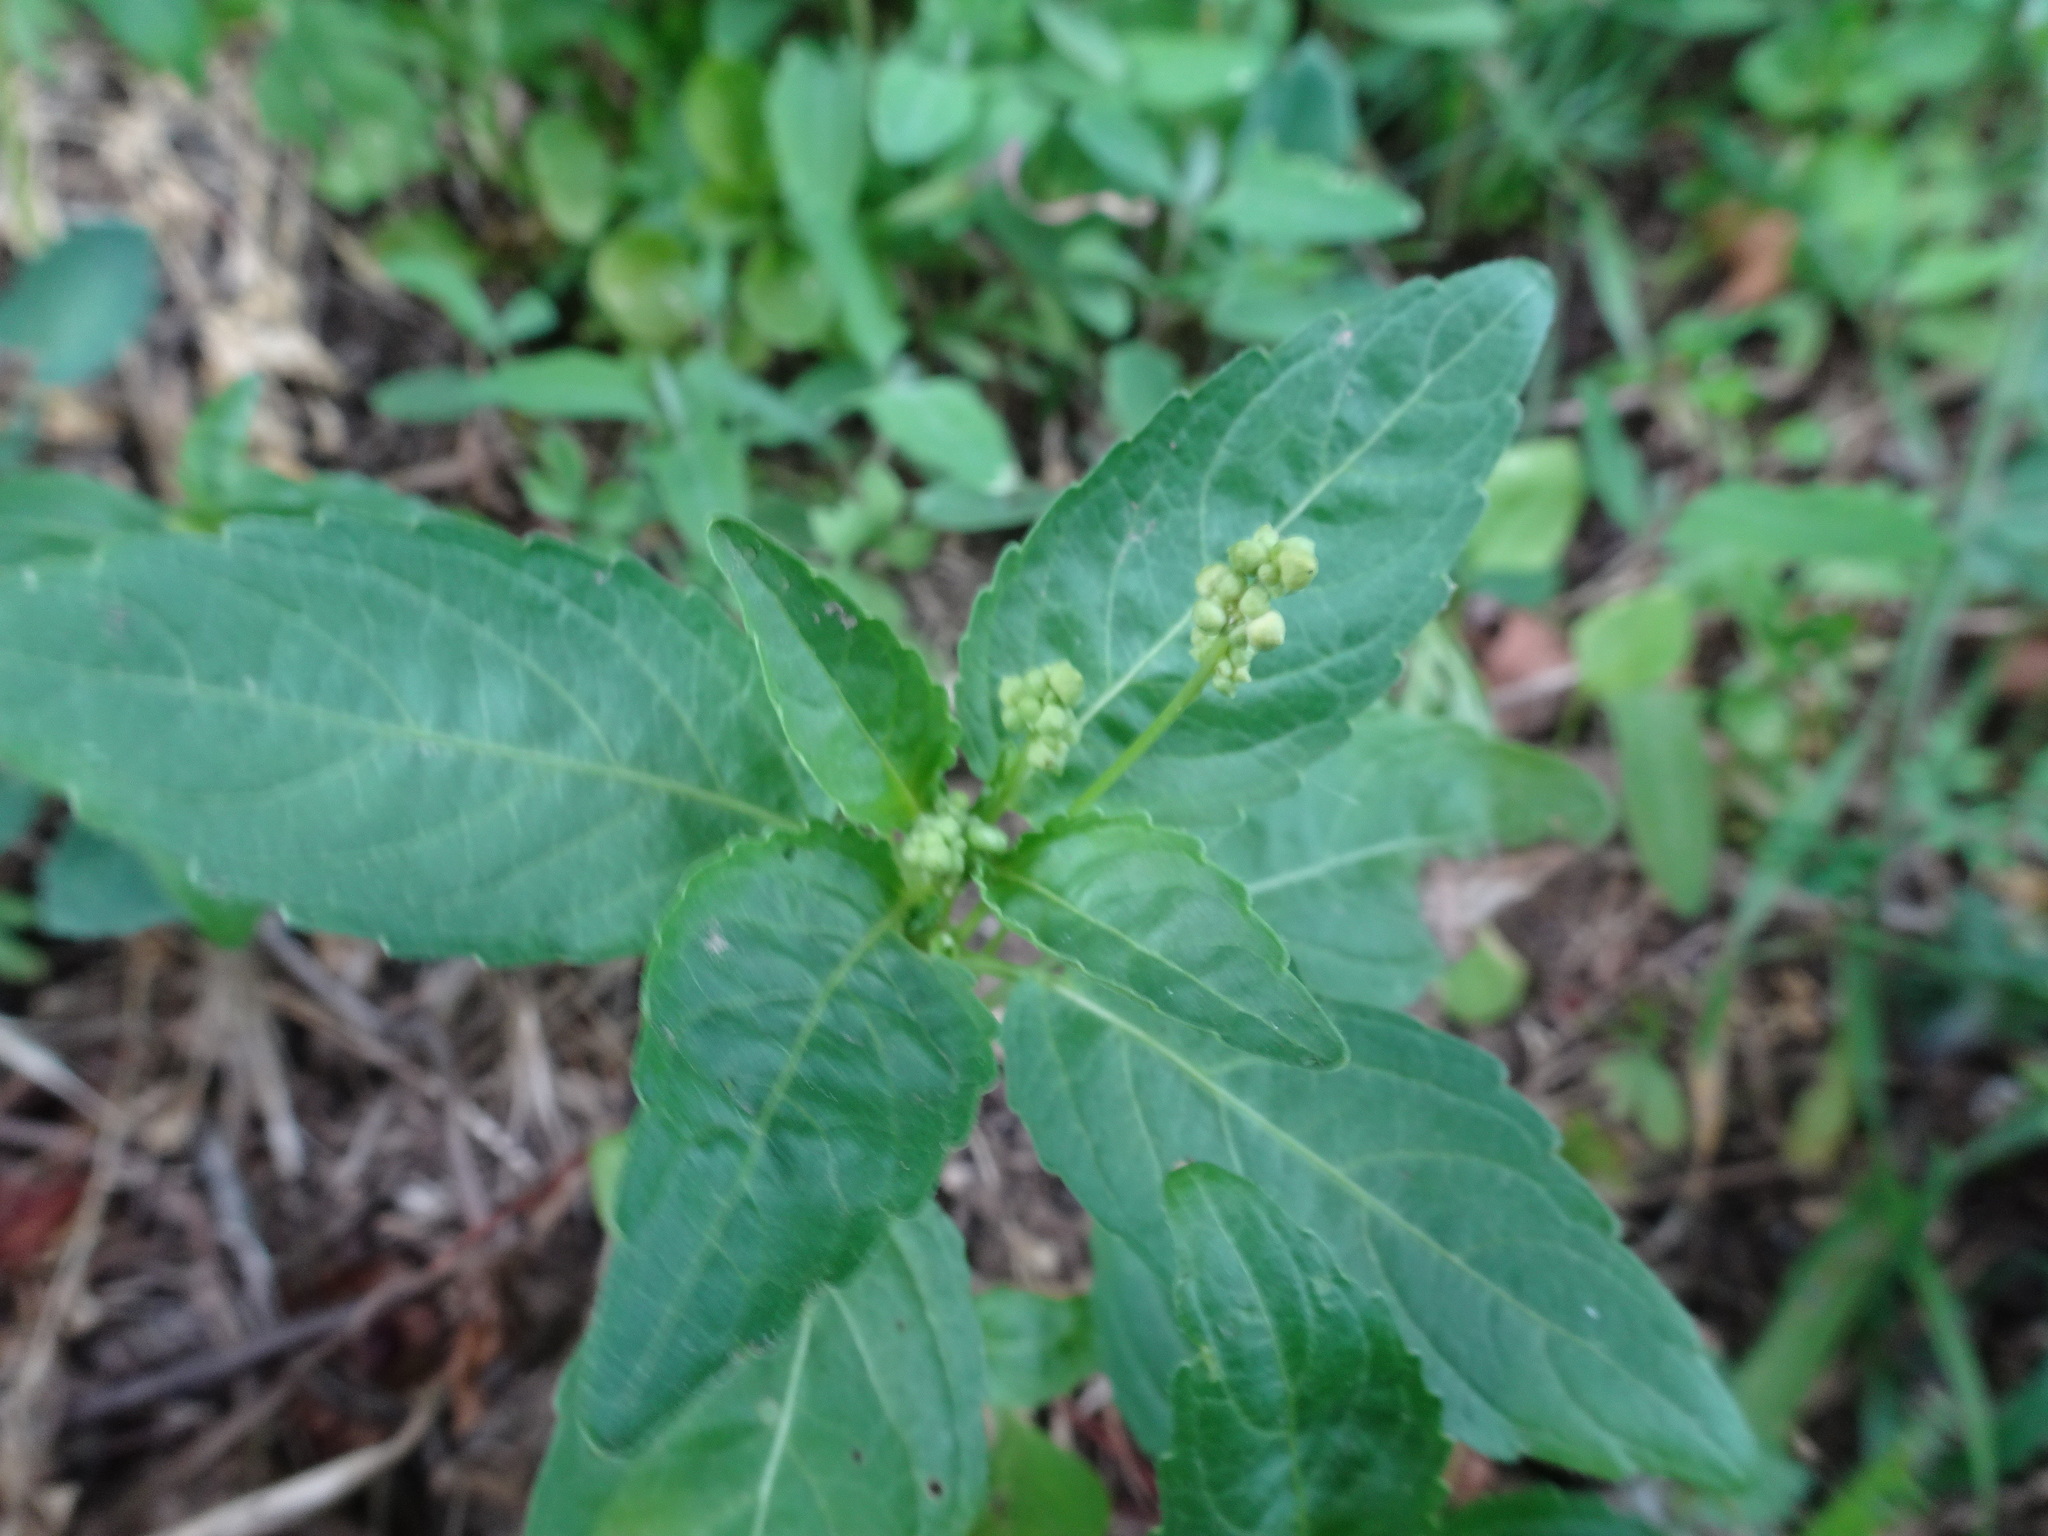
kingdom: Plantae
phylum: Tracheophyta
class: Magnoliopsida
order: Malpighiales
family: Euphorbiaceae
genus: Mercurialis
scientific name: Mercurialis annua
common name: Annual mercury
